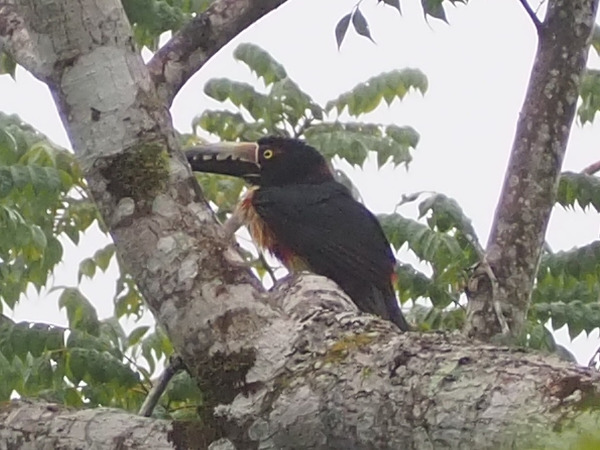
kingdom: Animalia
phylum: Chordata
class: Aves
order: Piciformes
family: Ramphastidae
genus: Pteroglossus
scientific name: Pteroglossus torquatus
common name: Collared aracari
